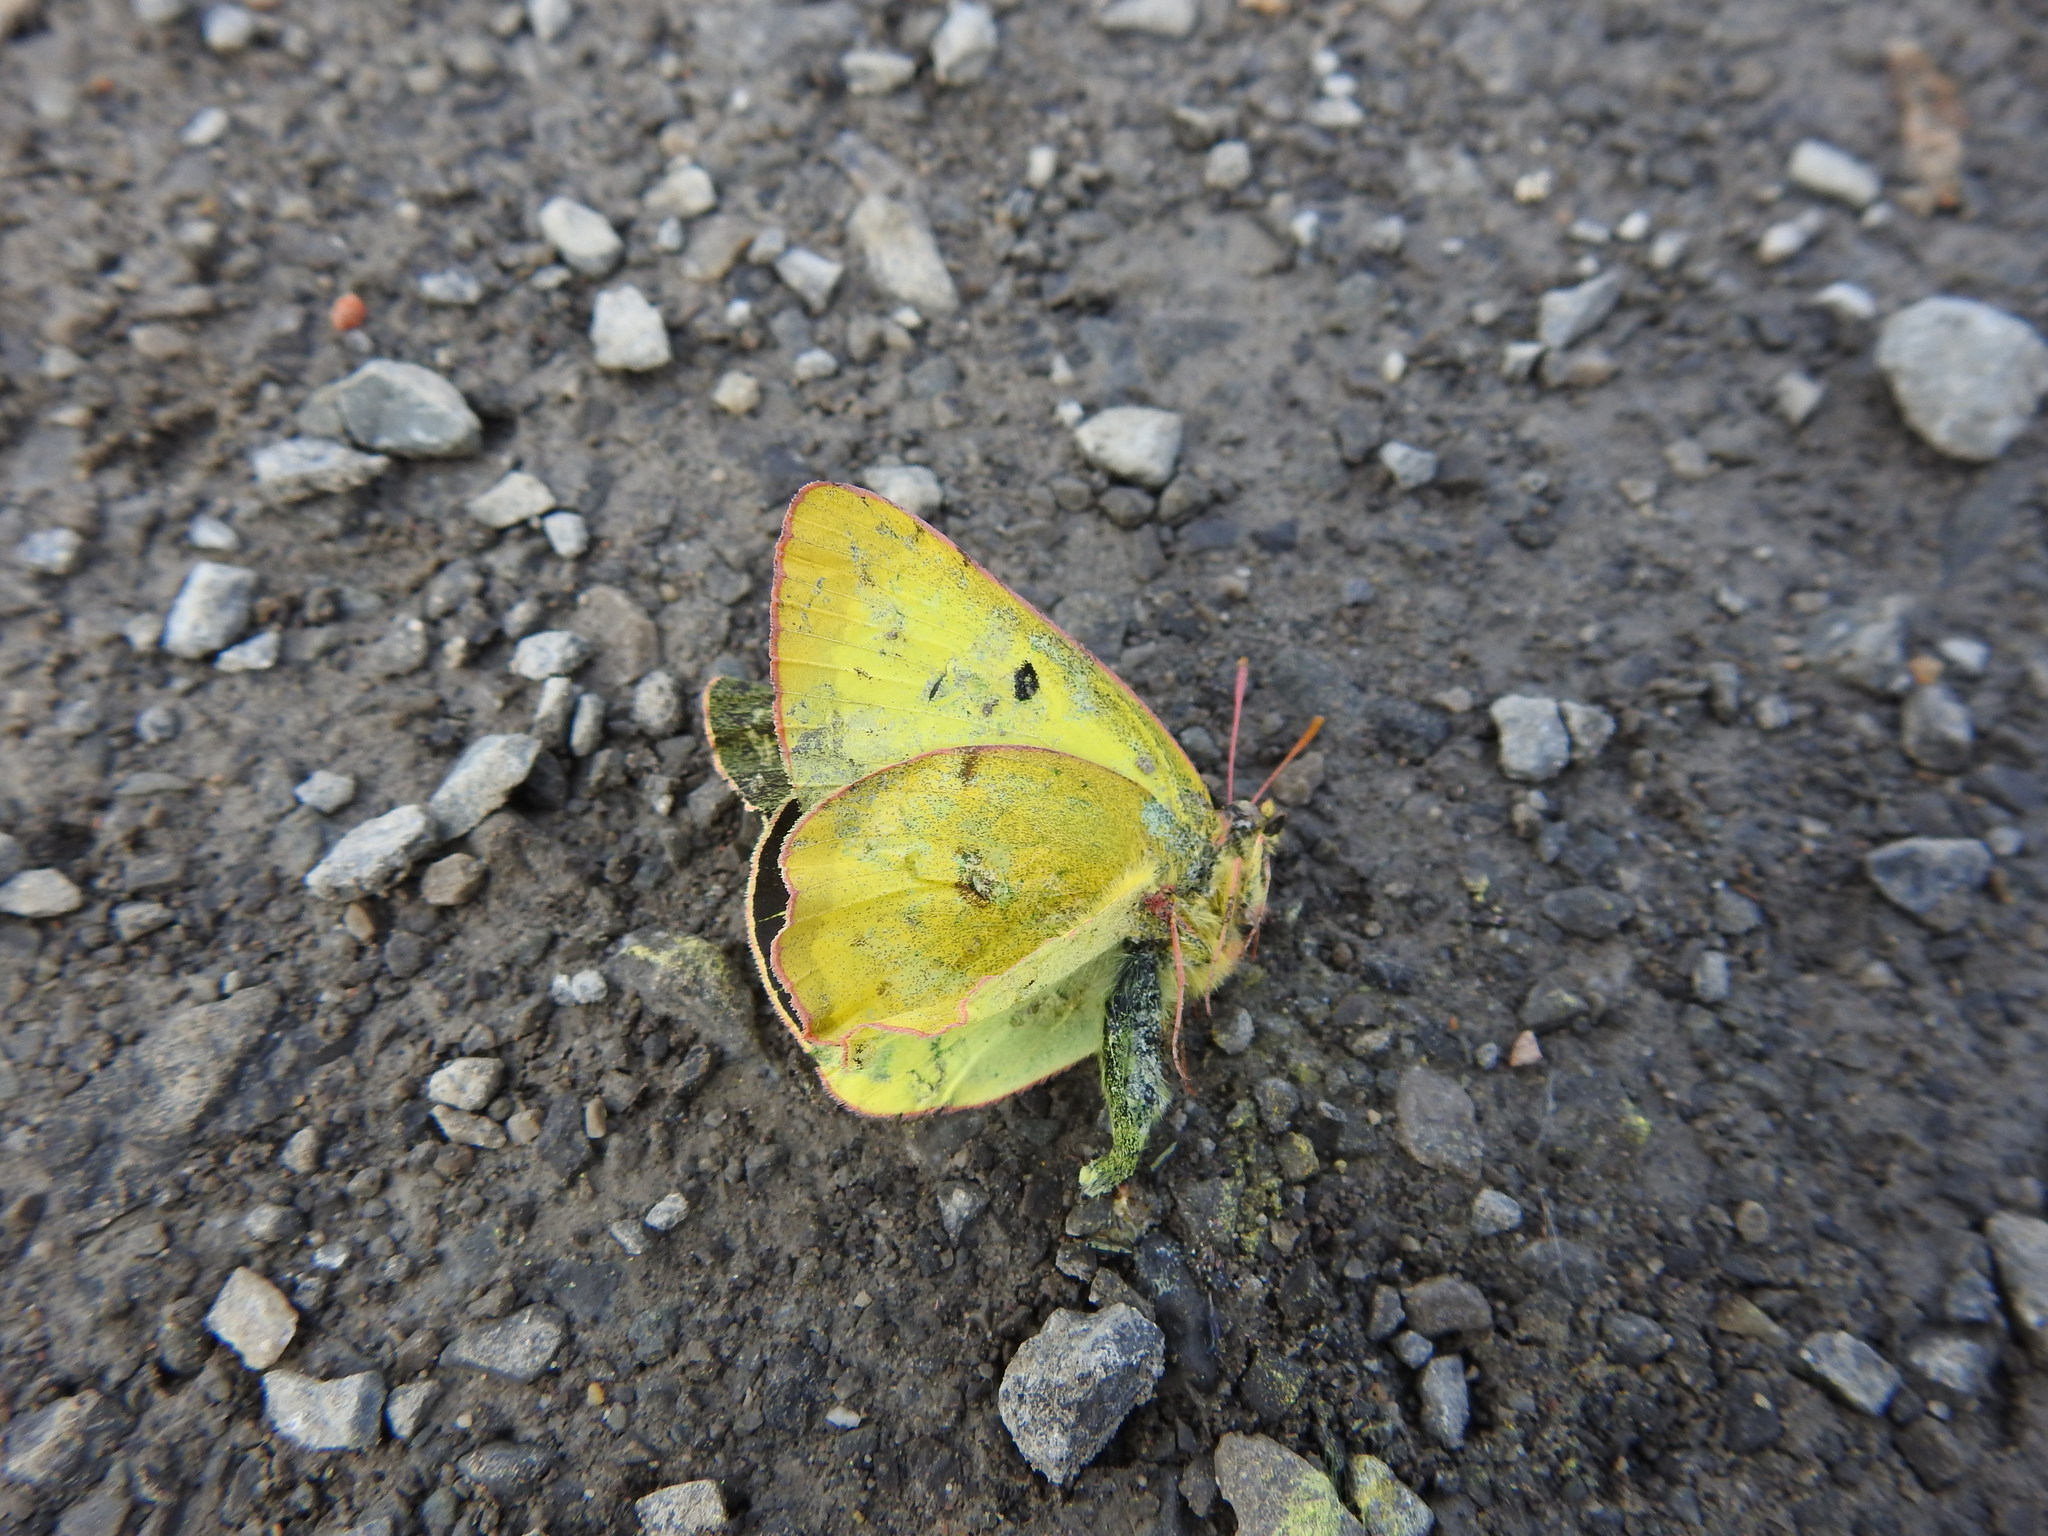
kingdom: Animalia
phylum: Arthropoda
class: Insecta
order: Lepidoptera
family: Pieridae
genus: Colias
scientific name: Colias philodice
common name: Clouded sulphur
